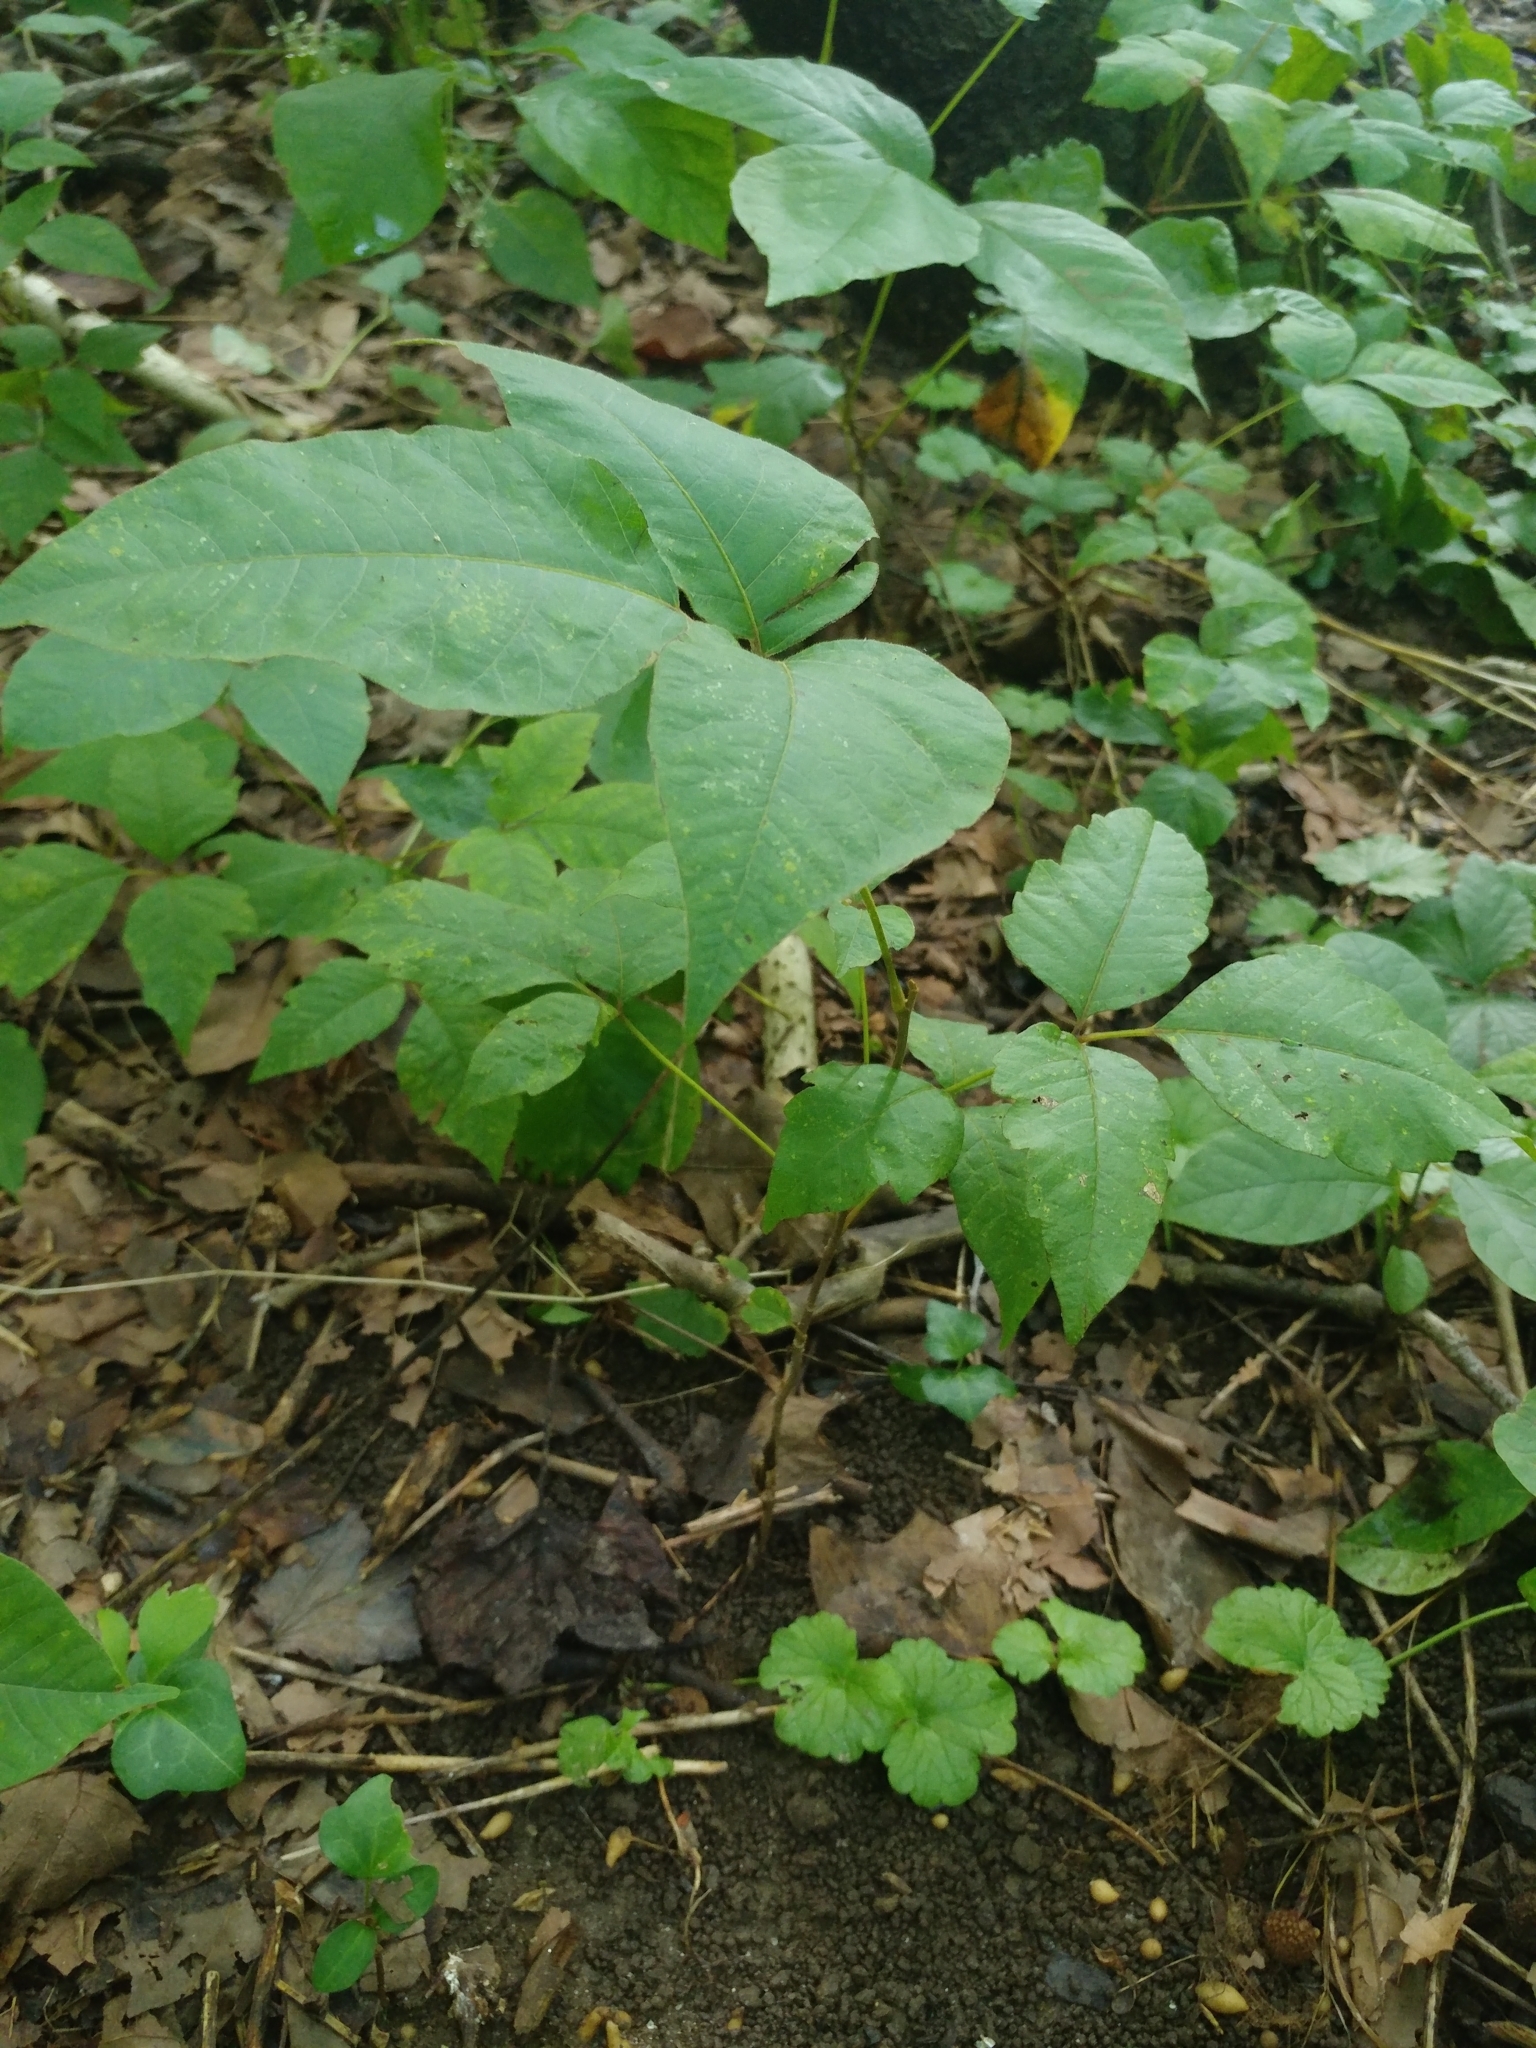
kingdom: Plantae
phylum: Tracheophyta
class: Magnoliopsida
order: Sapindales
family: Anacardiaceae
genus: Toxicodendron
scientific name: Toxicodendron radicans
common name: Poison ivy
